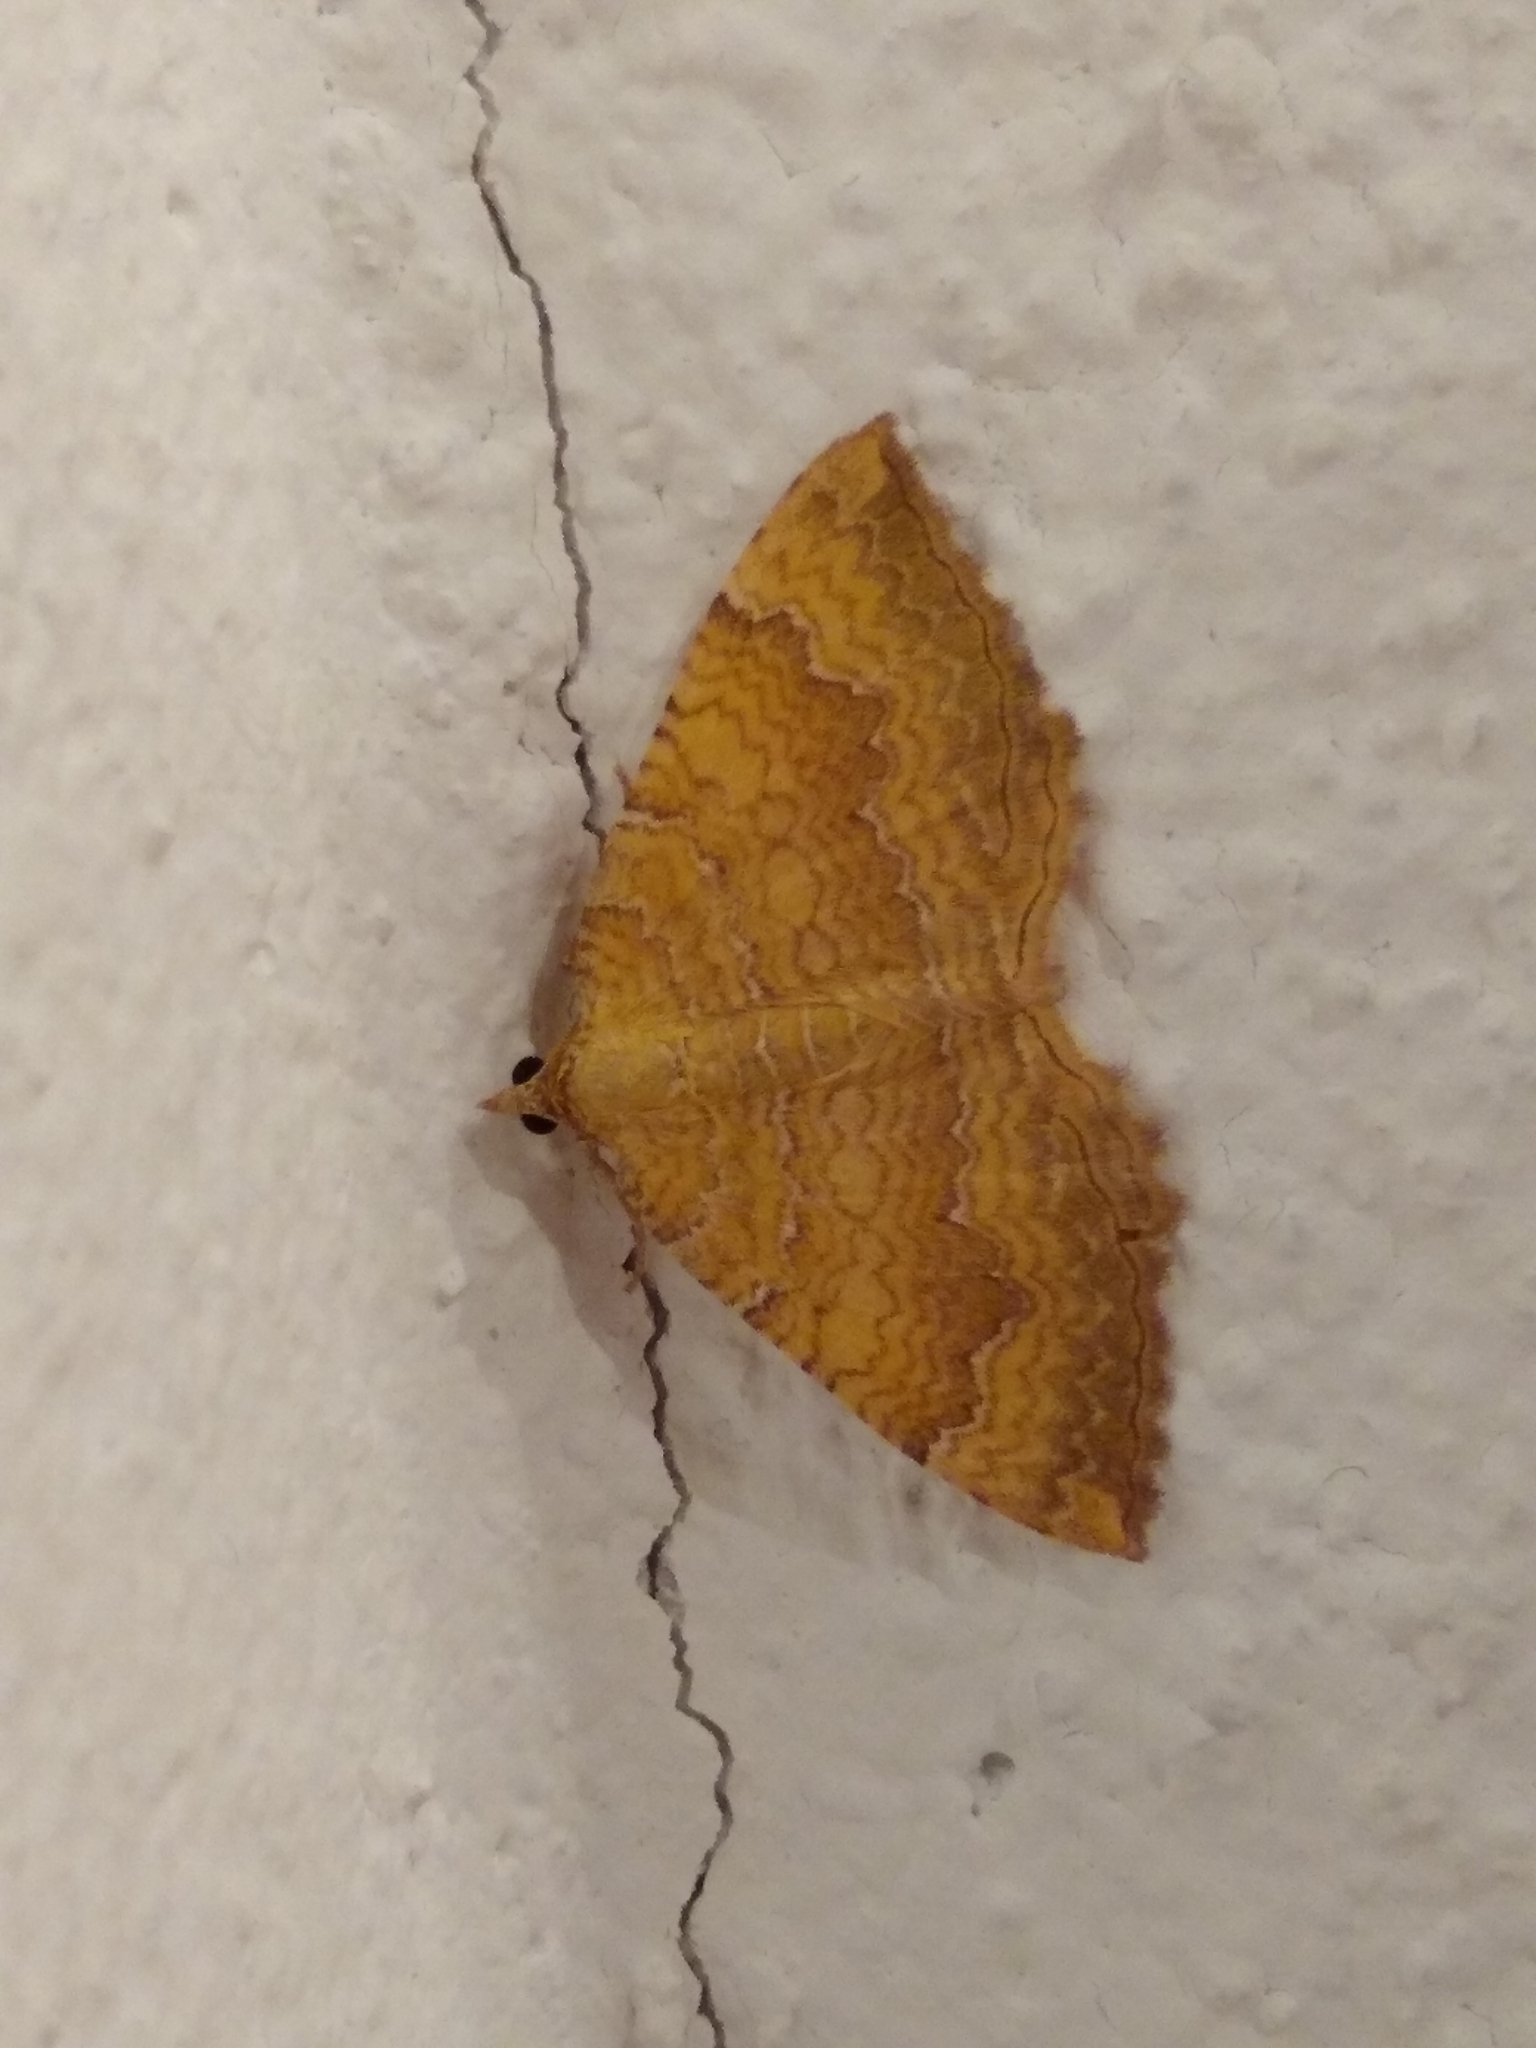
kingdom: Animalia
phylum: Arthropoda
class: Insecta
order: Lepidoptera
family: Geometridae
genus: Camptogramma
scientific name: Camptogramma bilineata
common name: Yellow shell
